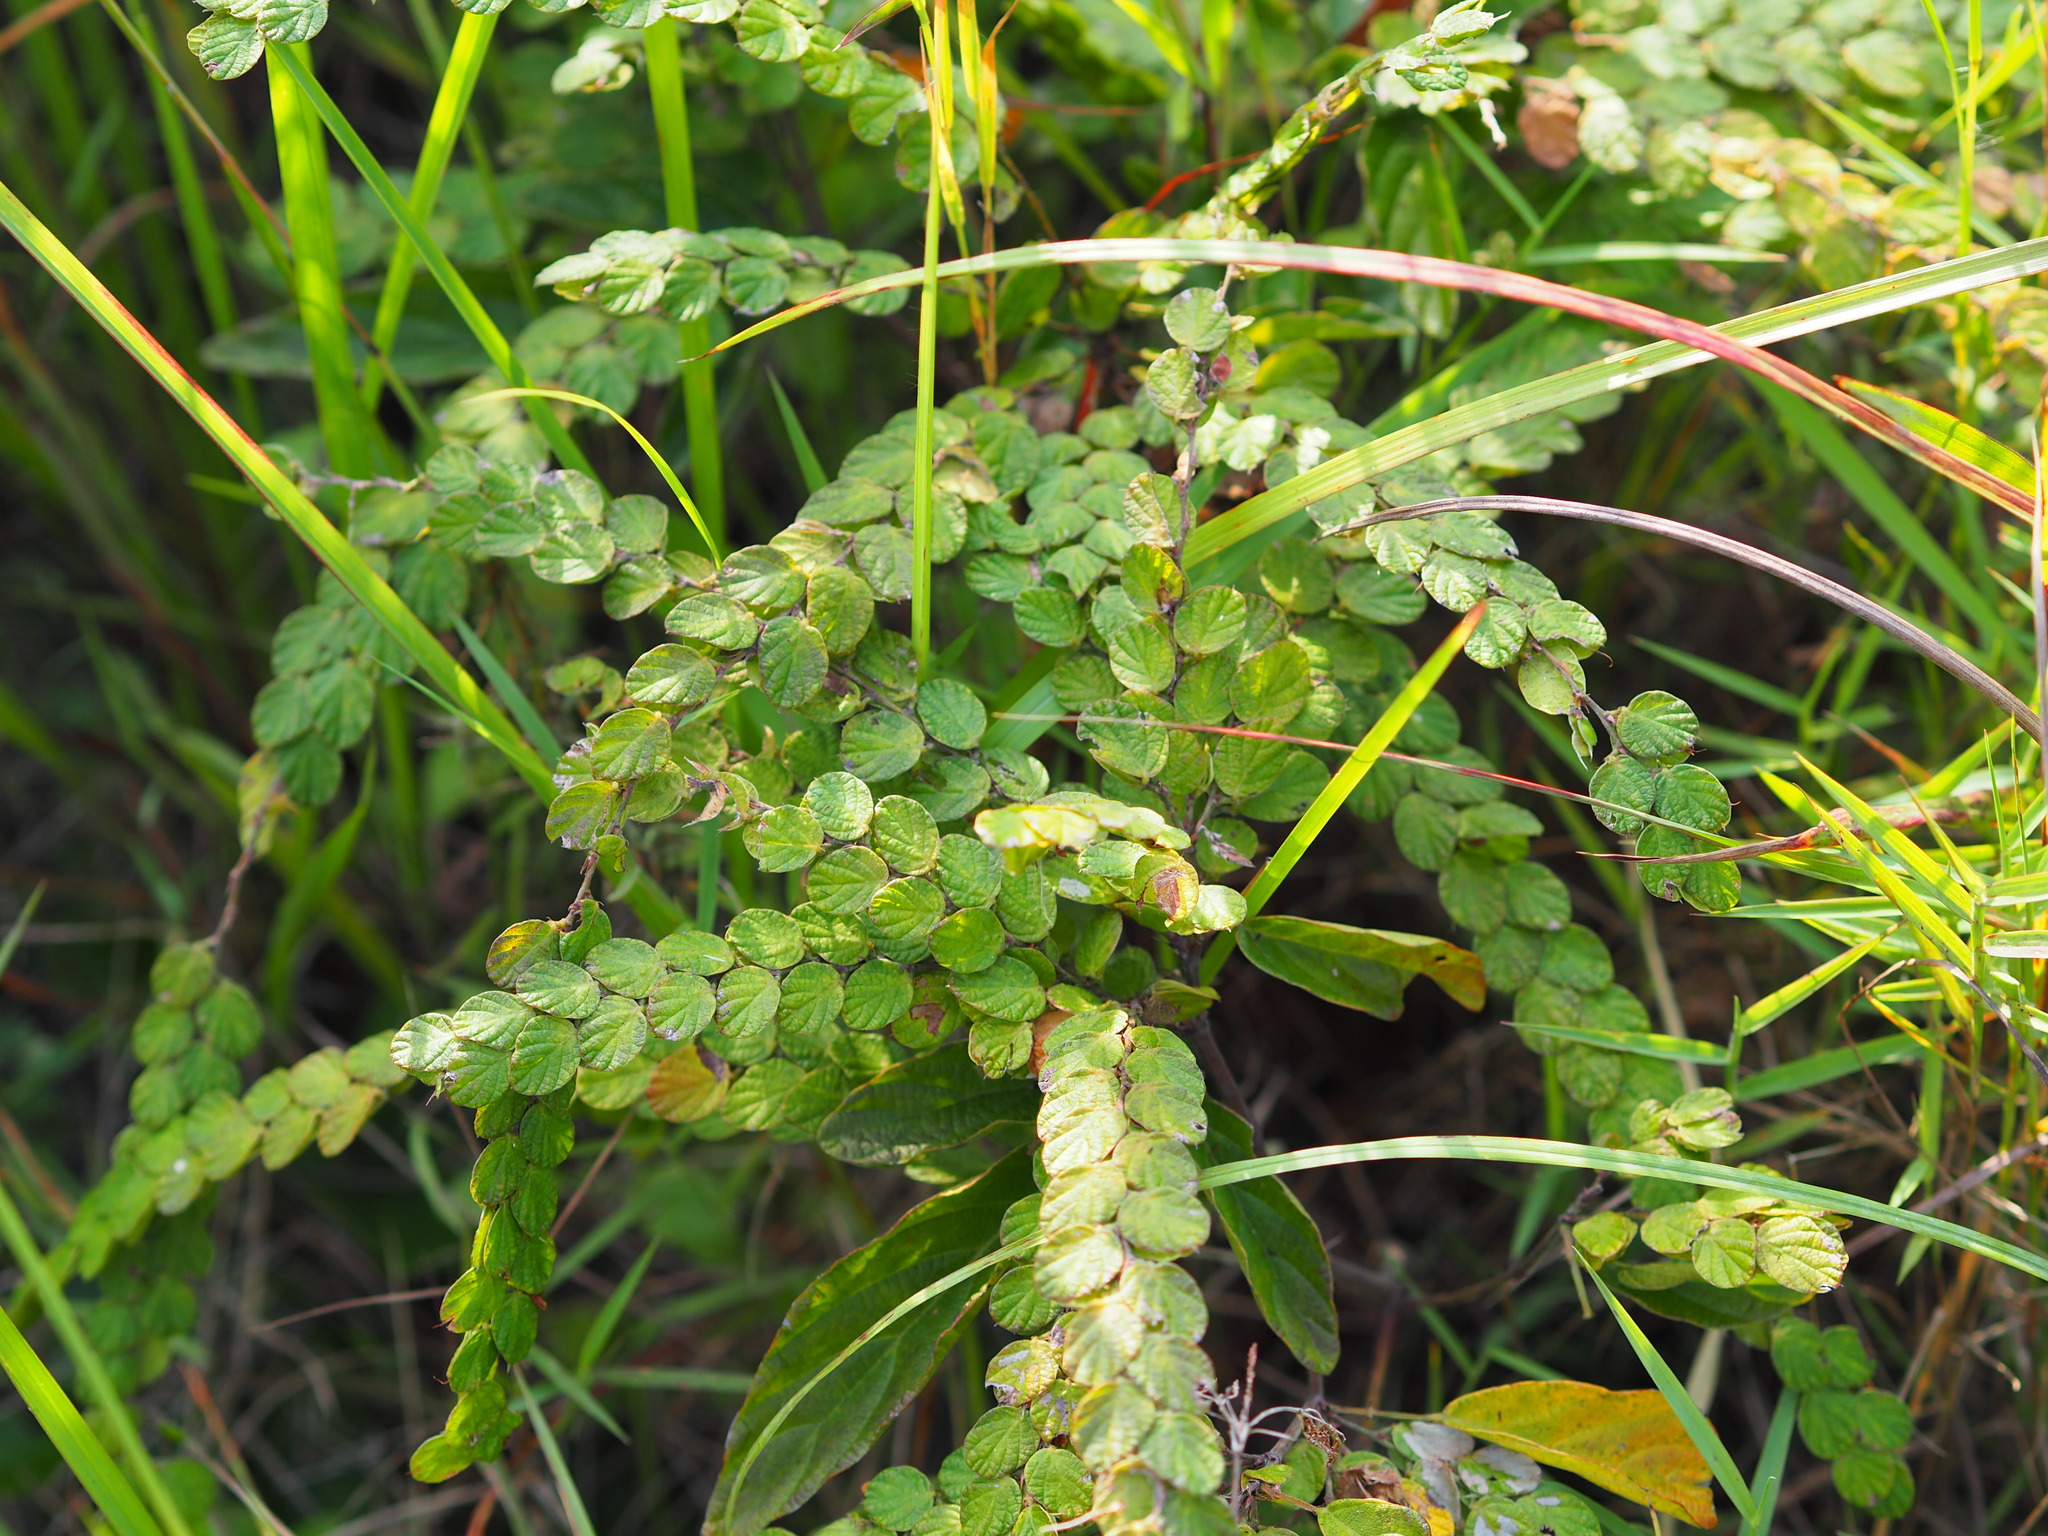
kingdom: Plantae
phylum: Tracheophyta
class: Magnoliopsida
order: Fabales
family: Fabaceae
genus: Phyllodium
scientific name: Phyllodium pulchellum
